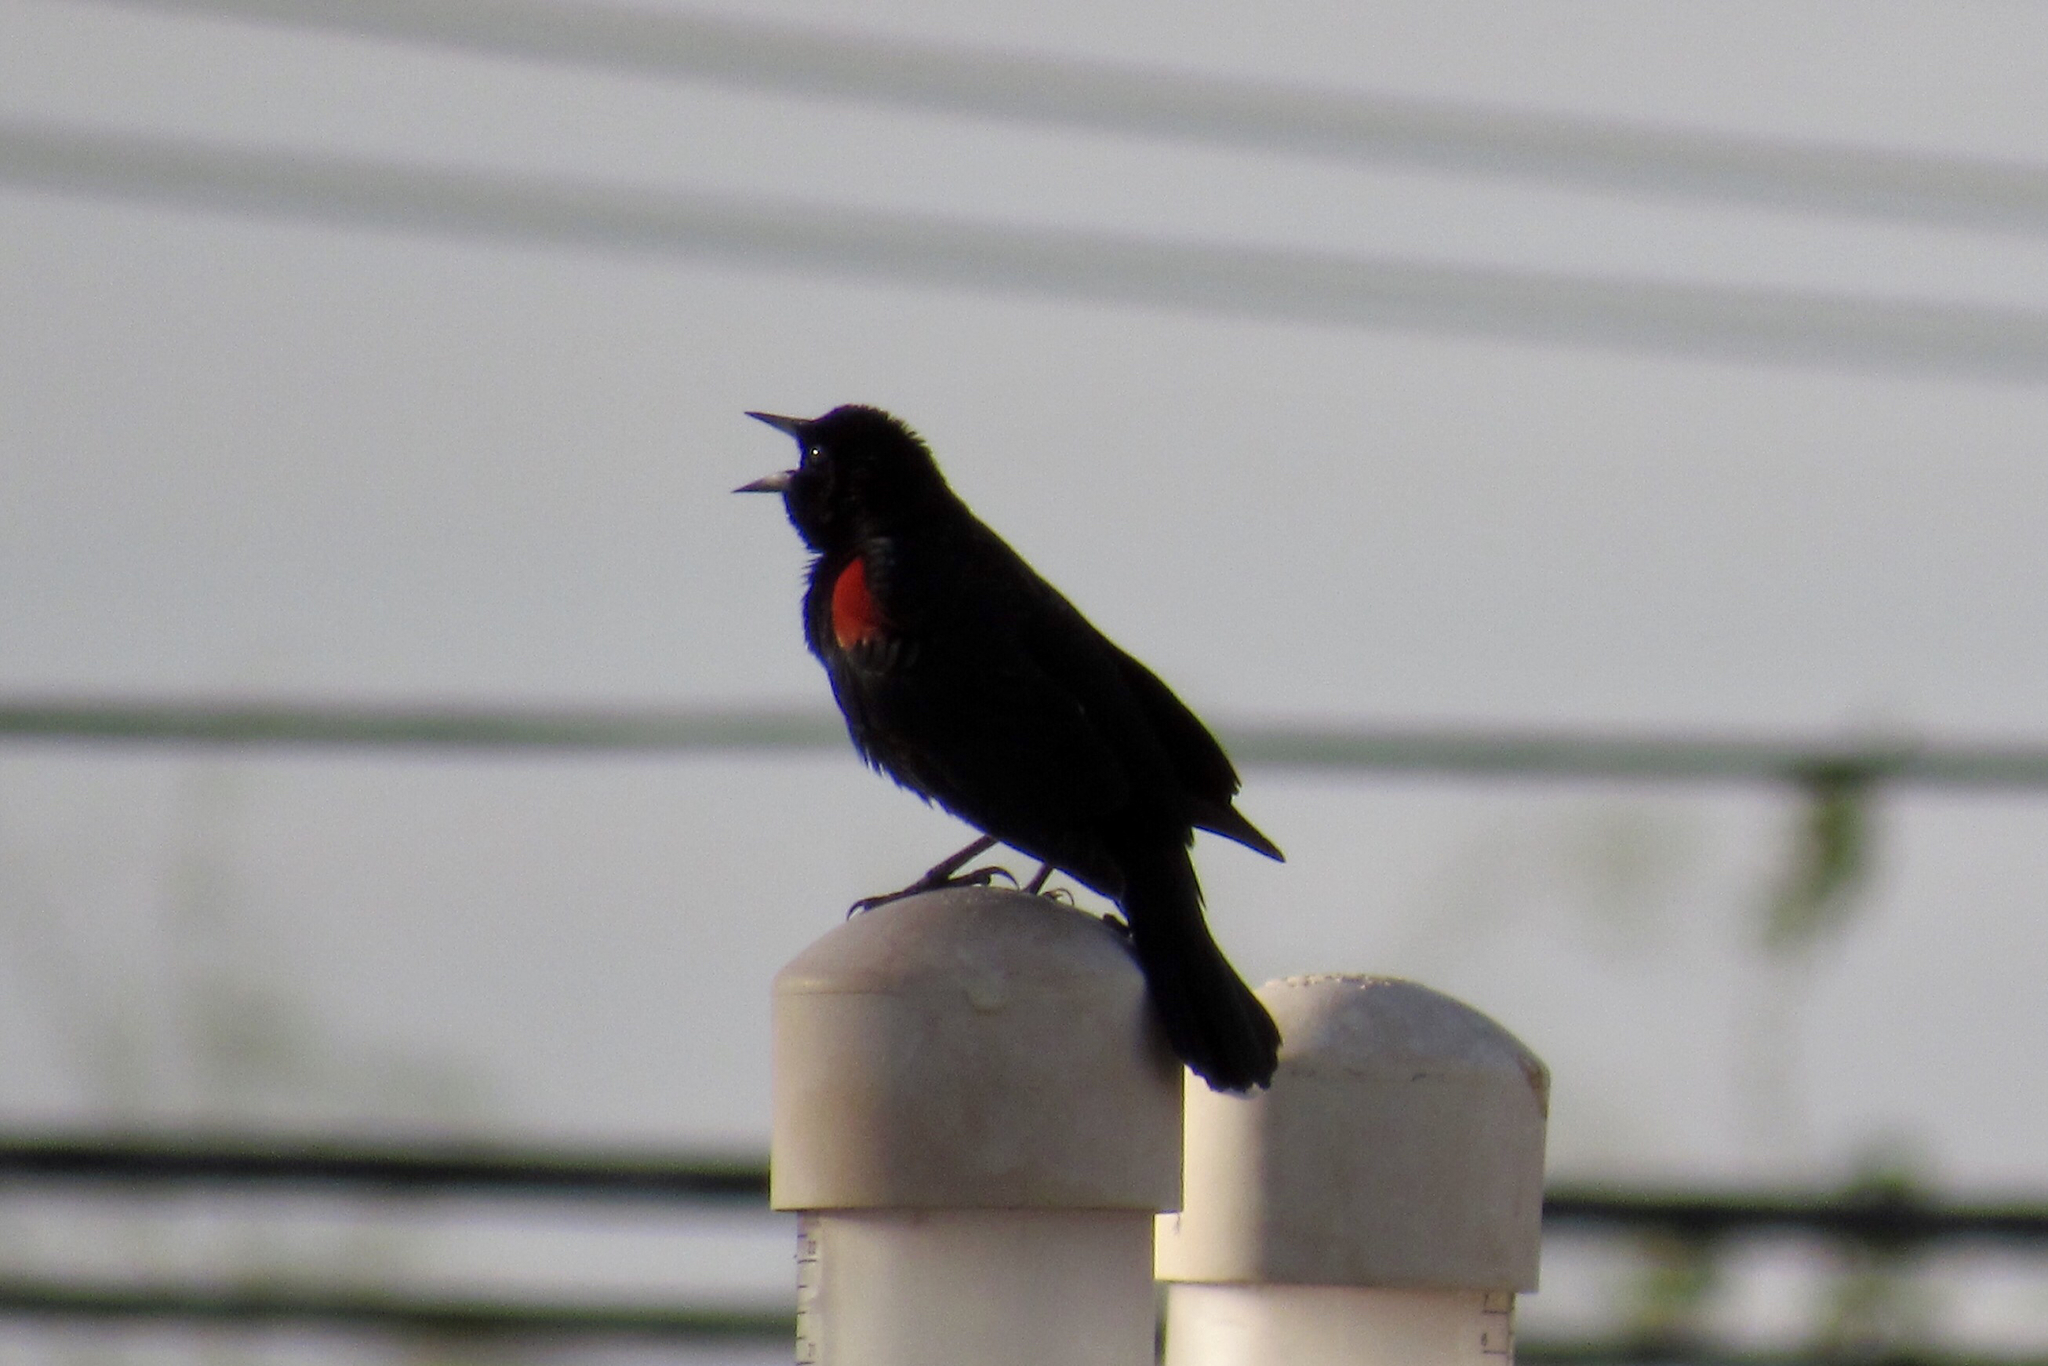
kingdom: Animalia
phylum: Chordata
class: Aves
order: Passeriformes
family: Icteridae
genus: Agelaius
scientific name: Agelaius phoeniceus
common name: Red-winged blackbird
